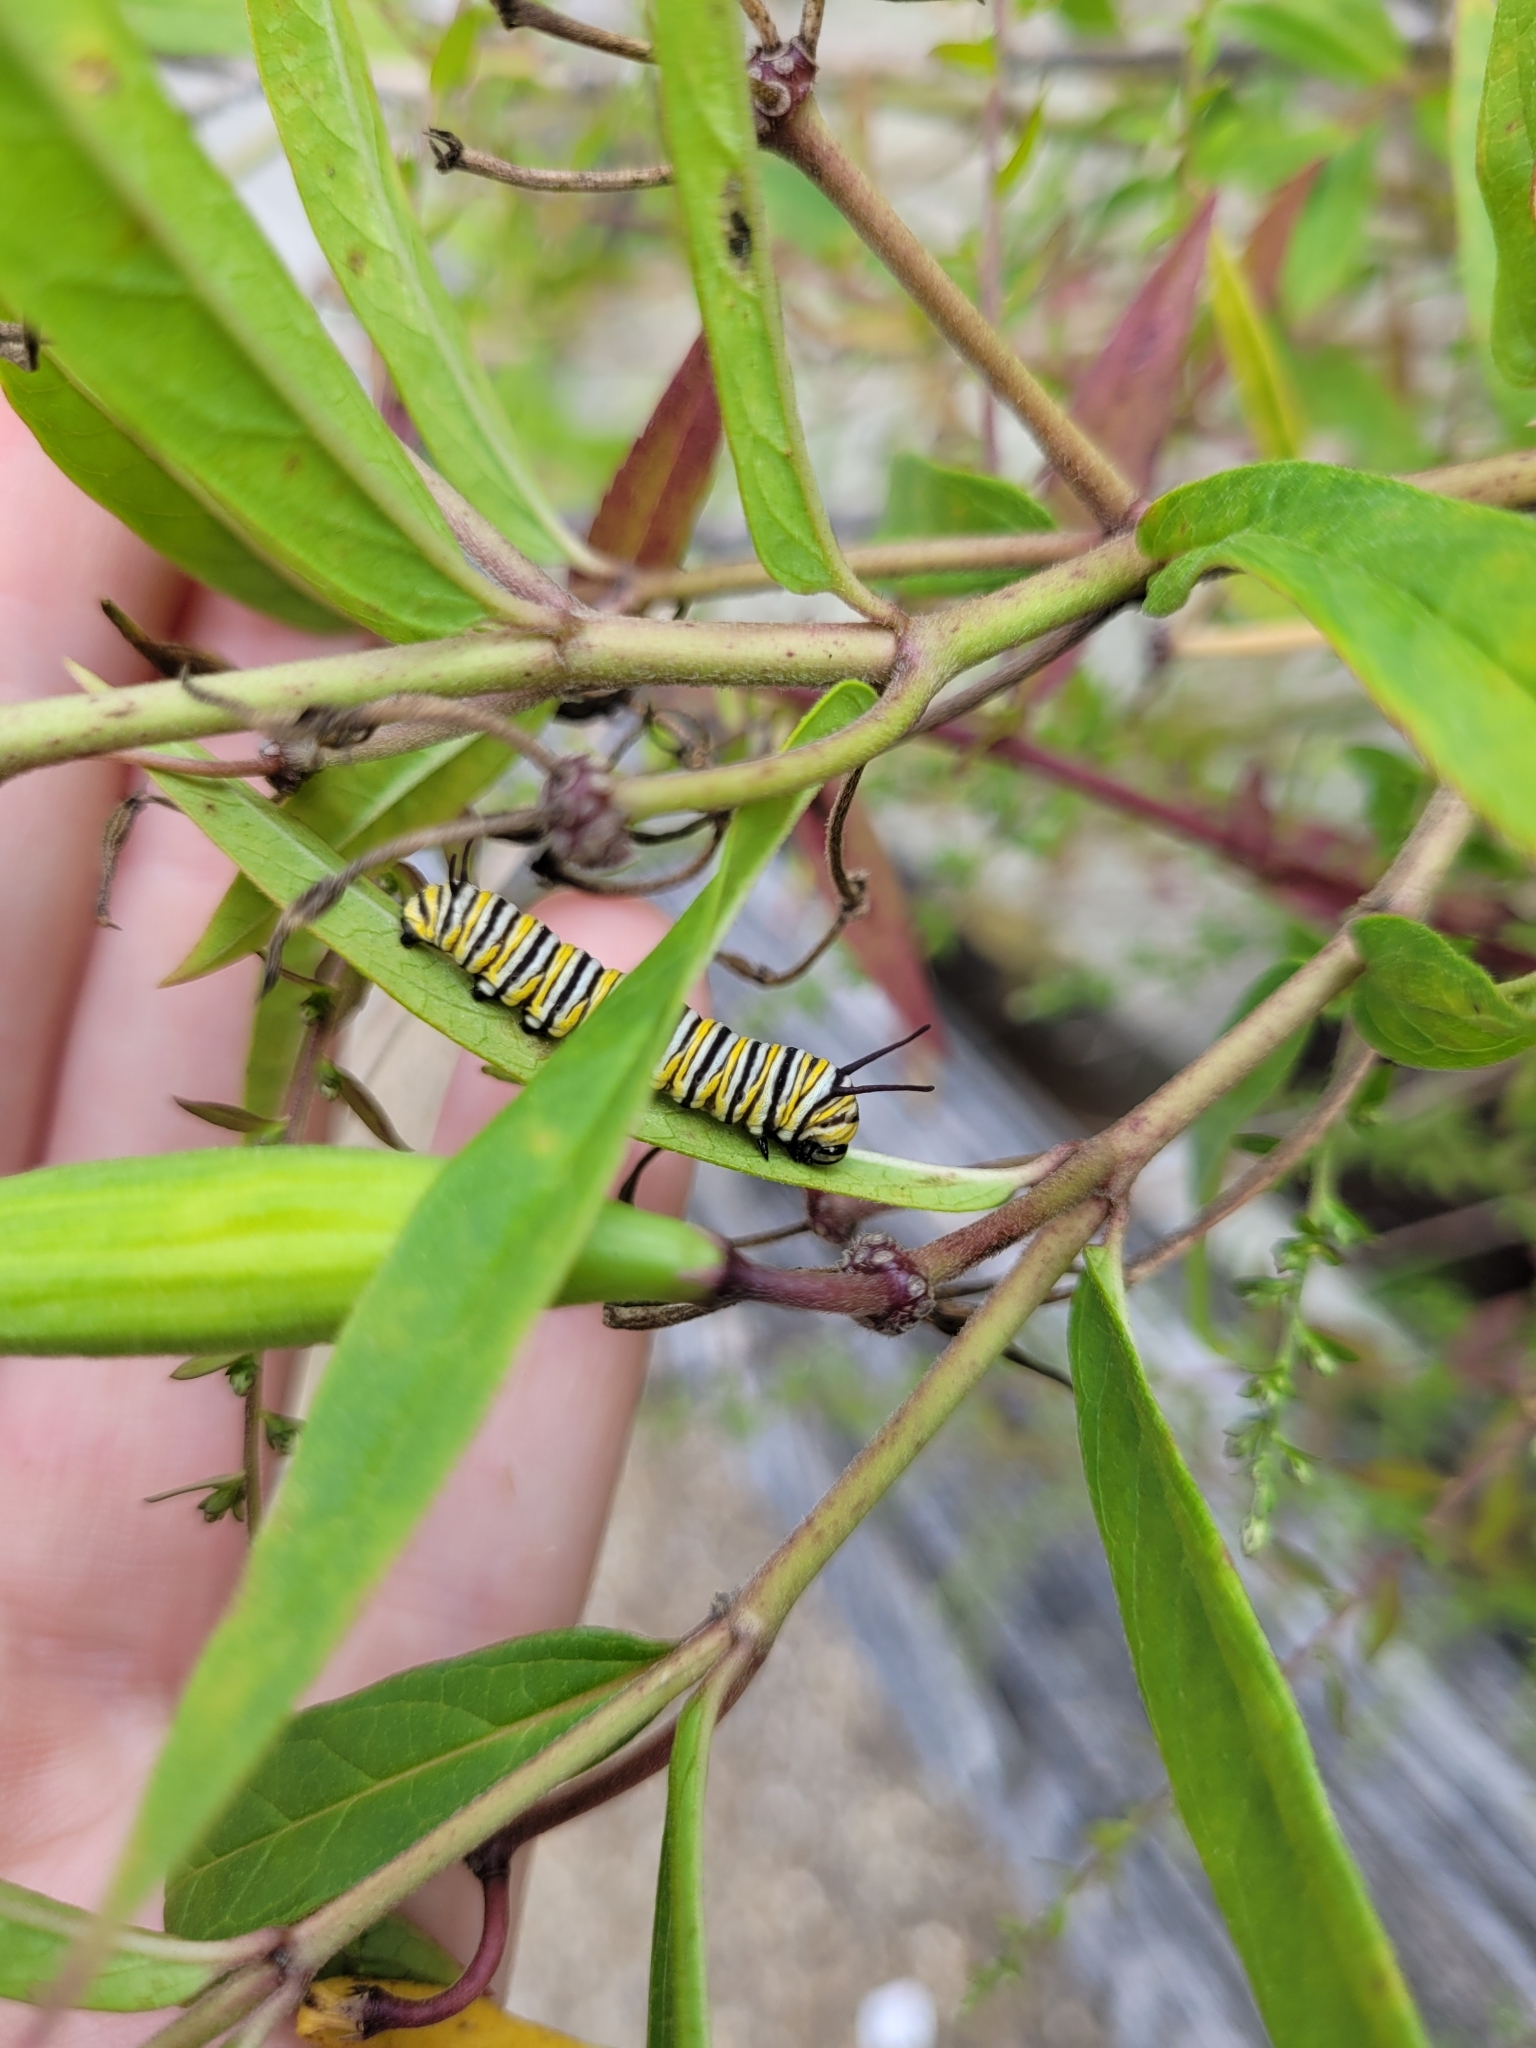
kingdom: Animalia
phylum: Arthropoda
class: Insecta
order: Lepidoptera
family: Nymphalidae
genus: Danaus
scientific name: Danaus plexippus
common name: Monarch
